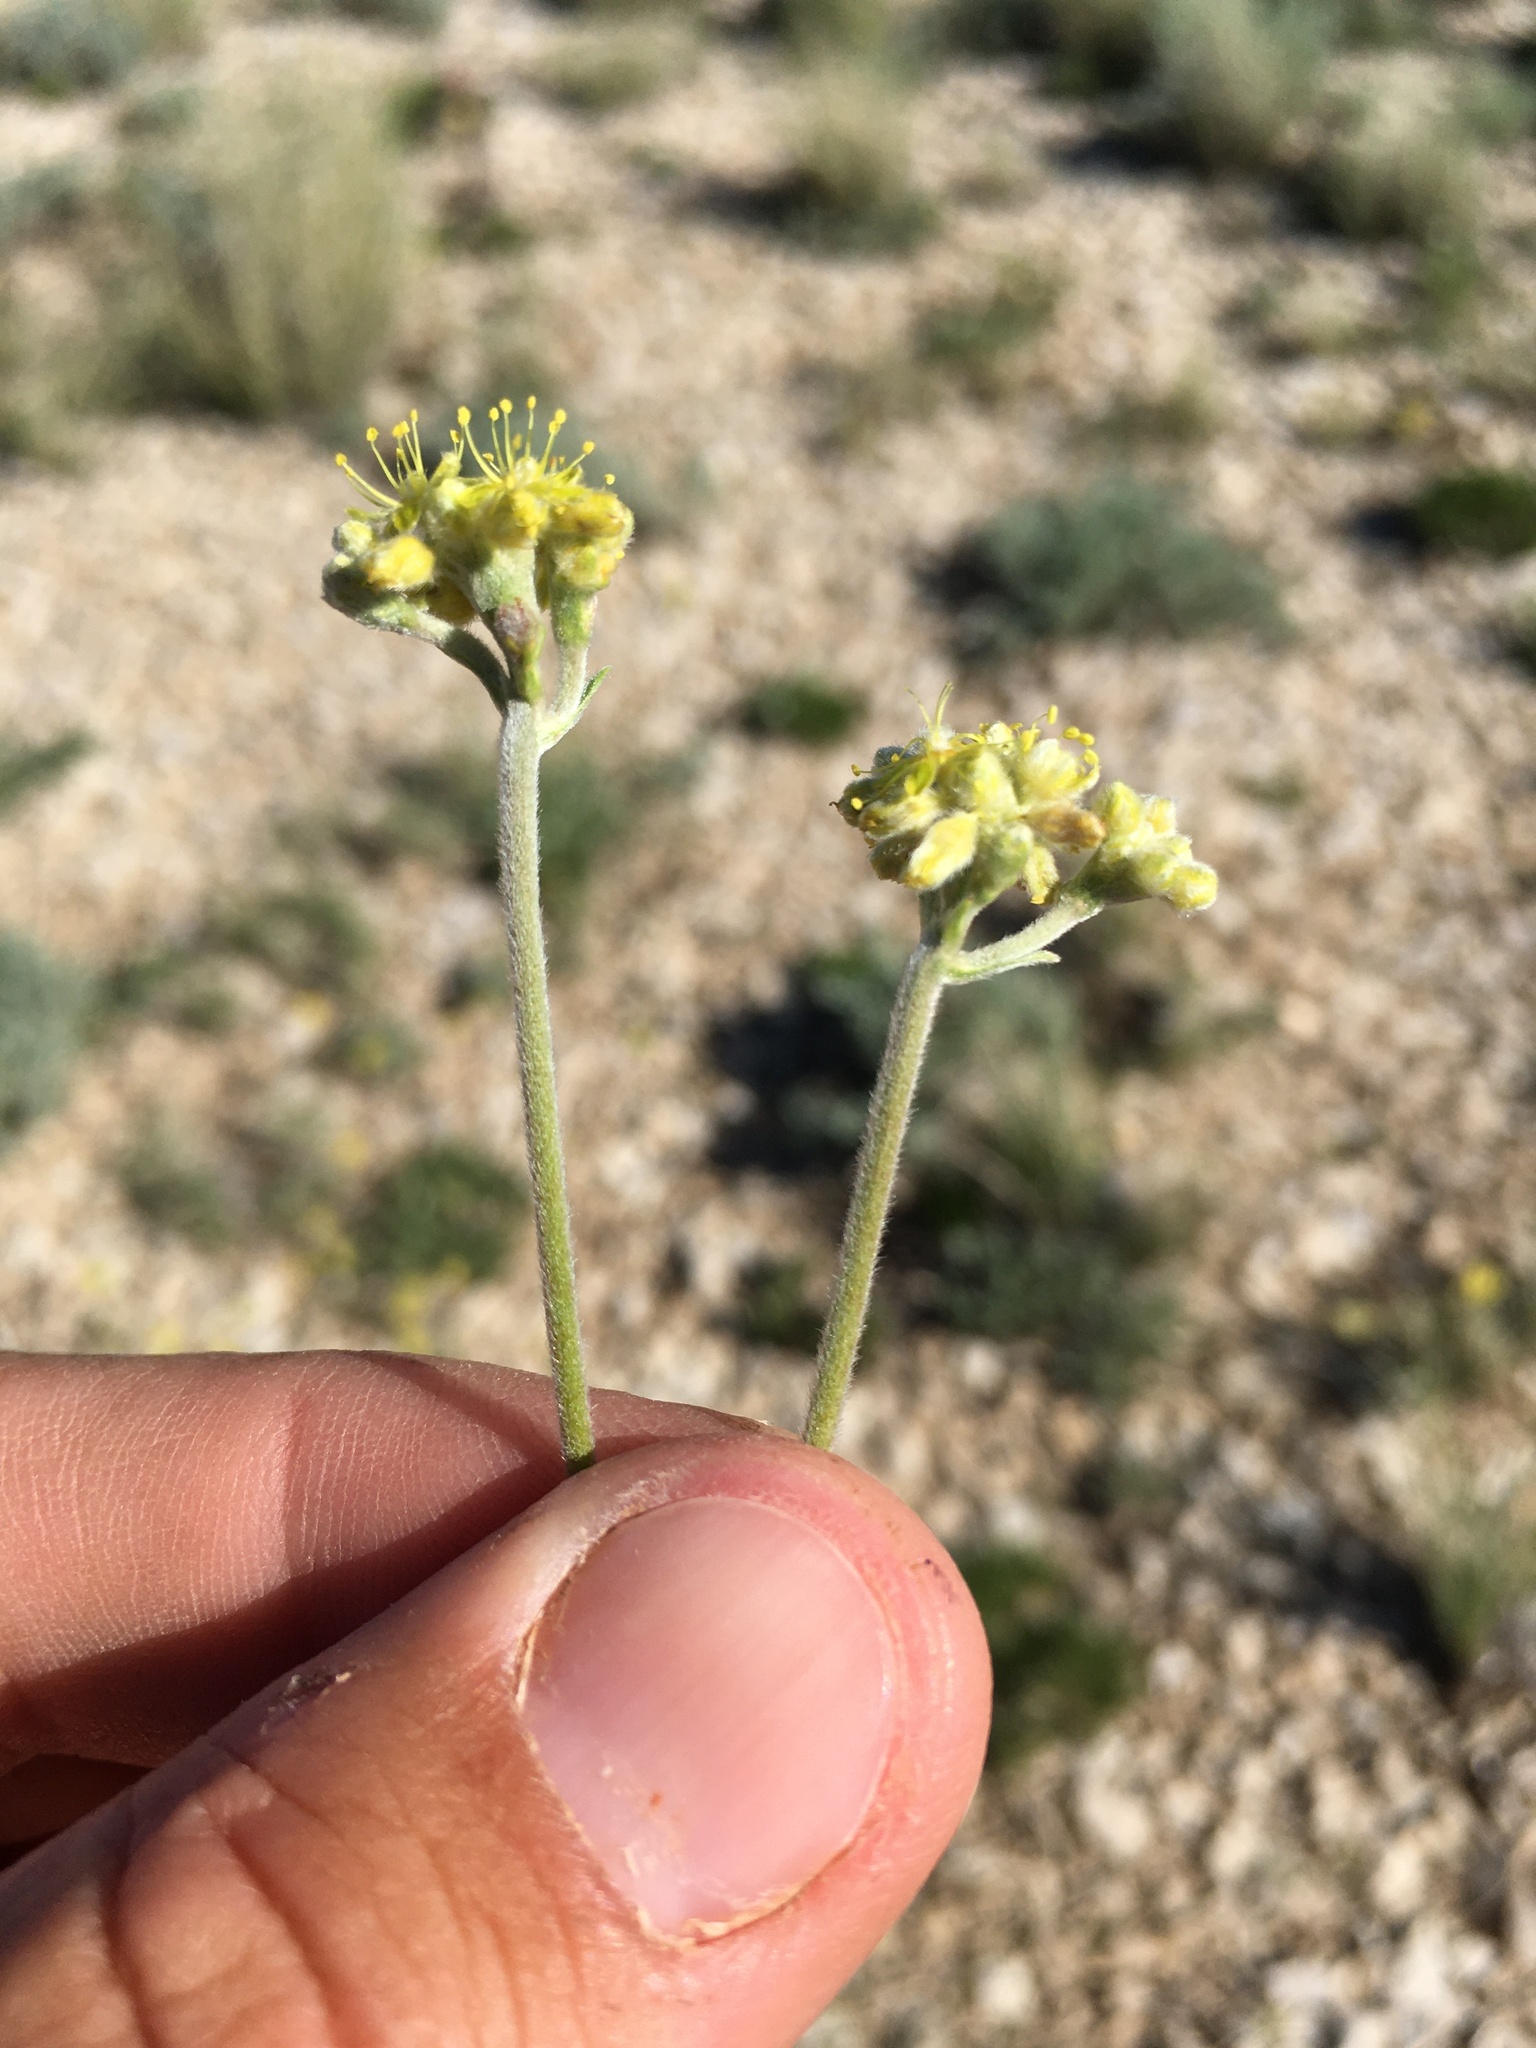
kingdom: Plantae
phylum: Tracheophyta
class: Magnoliopsida
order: Caryophyllales
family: Polygonaceae
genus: Eriogonum
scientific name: Eriogonum lachnogynum
